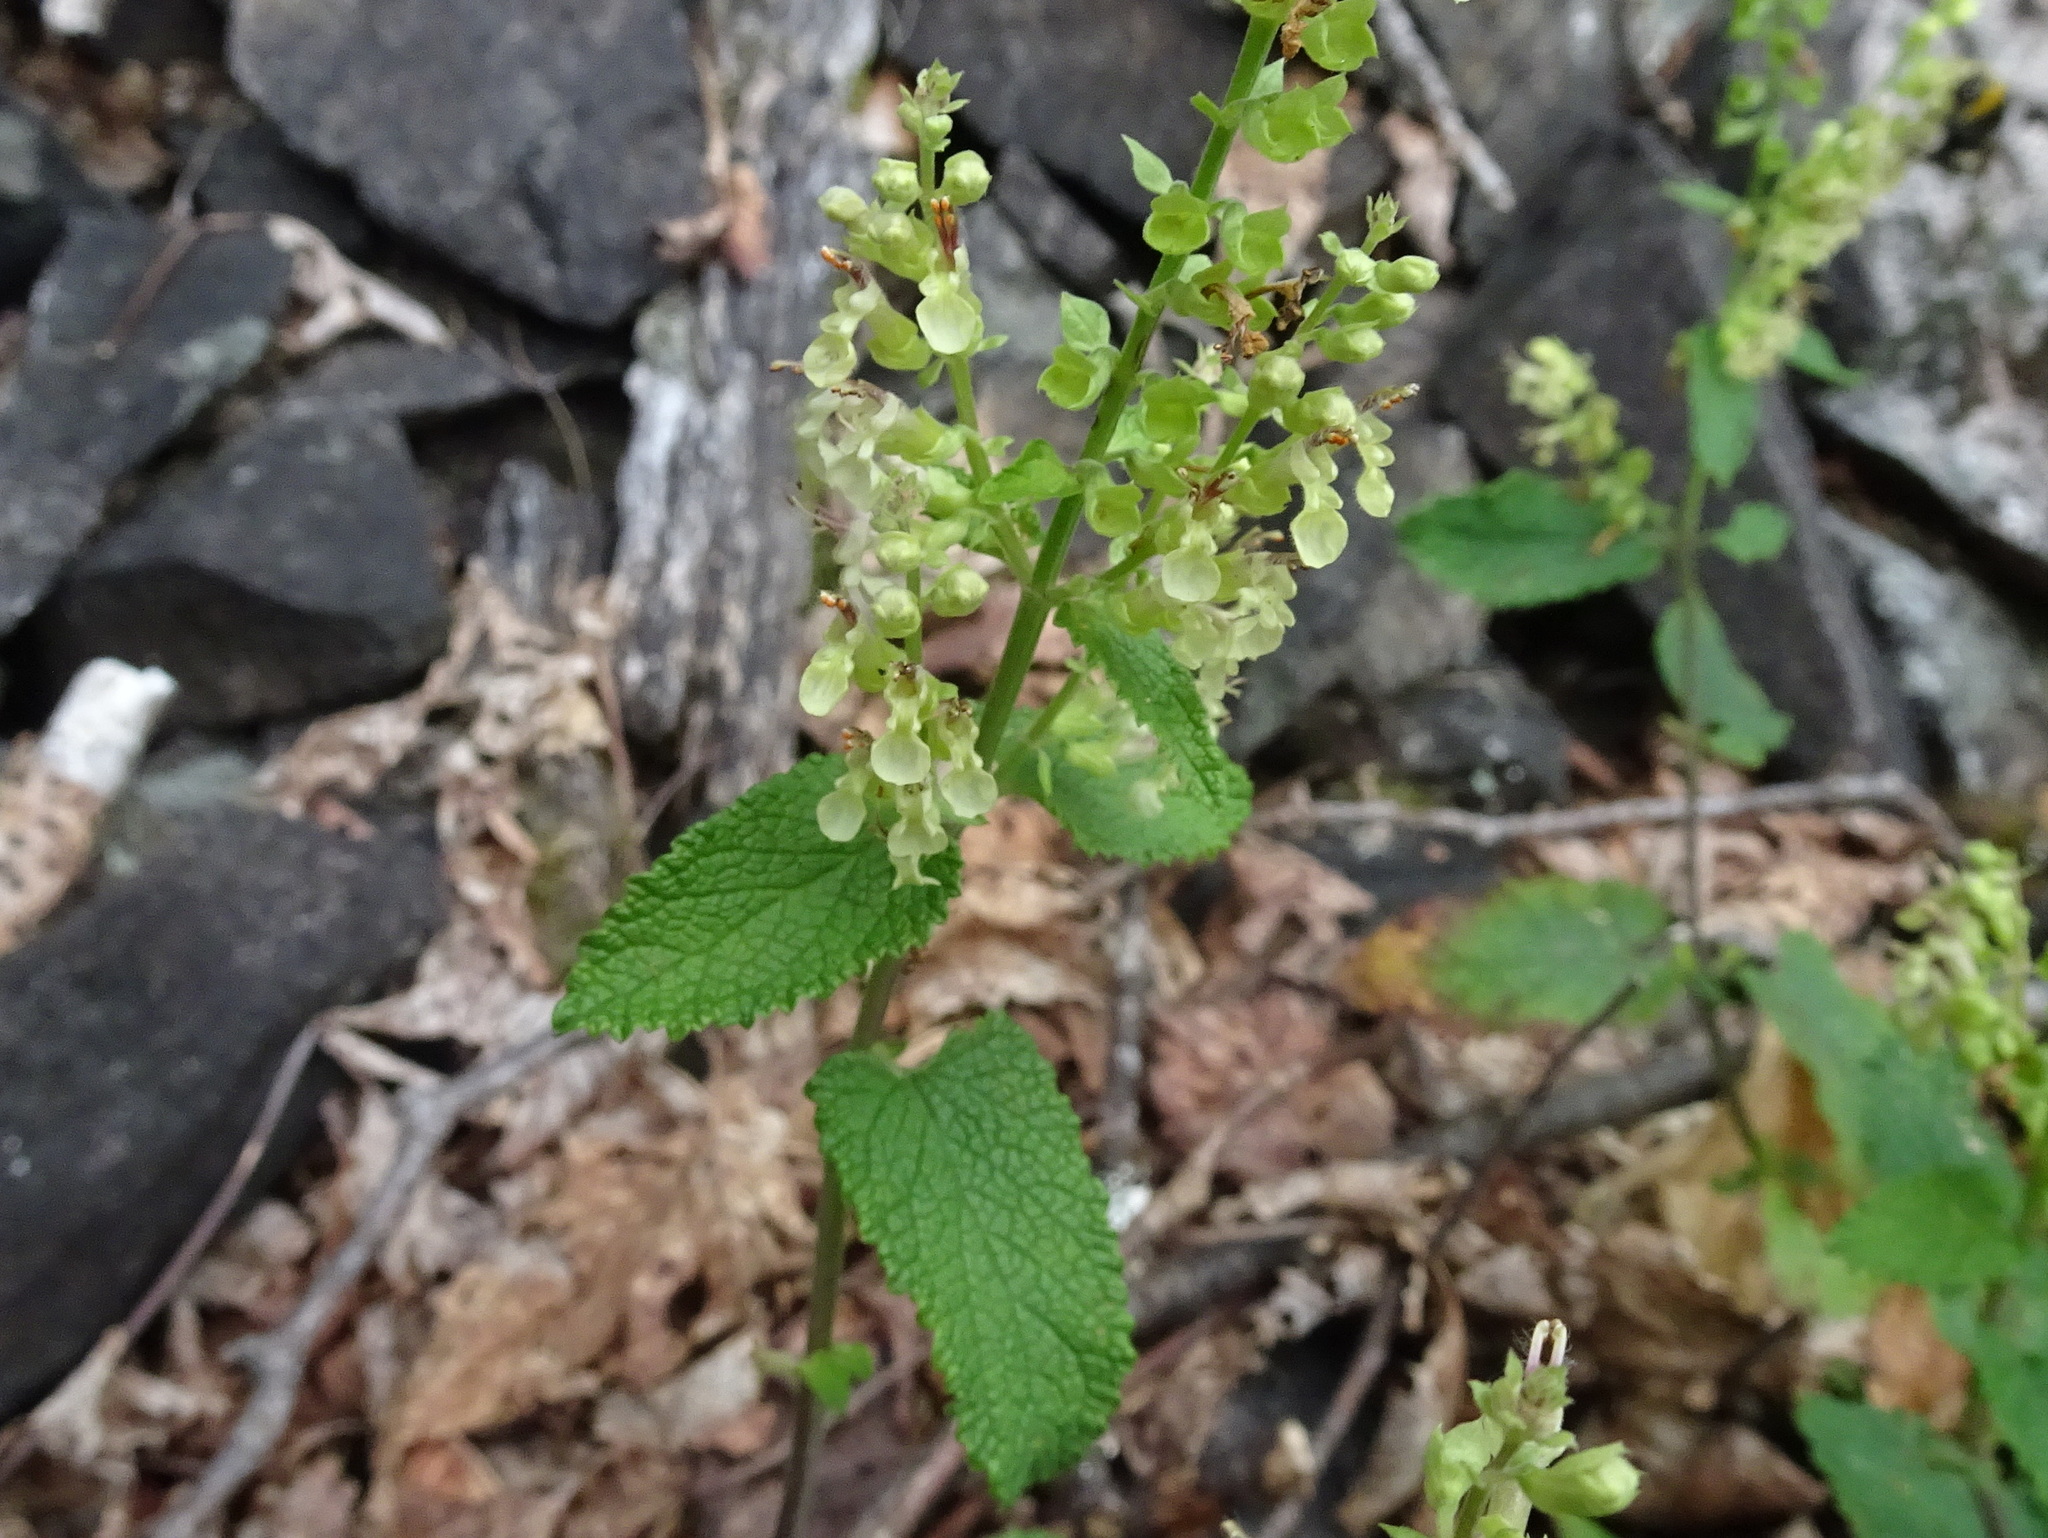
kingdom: Plantae
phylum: Tracheophyta
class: Magnoliopsida
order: Lamiales
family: Lamiaceae
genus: Teucrium
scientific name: Teucrium scorodonia
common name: Woodland germander
